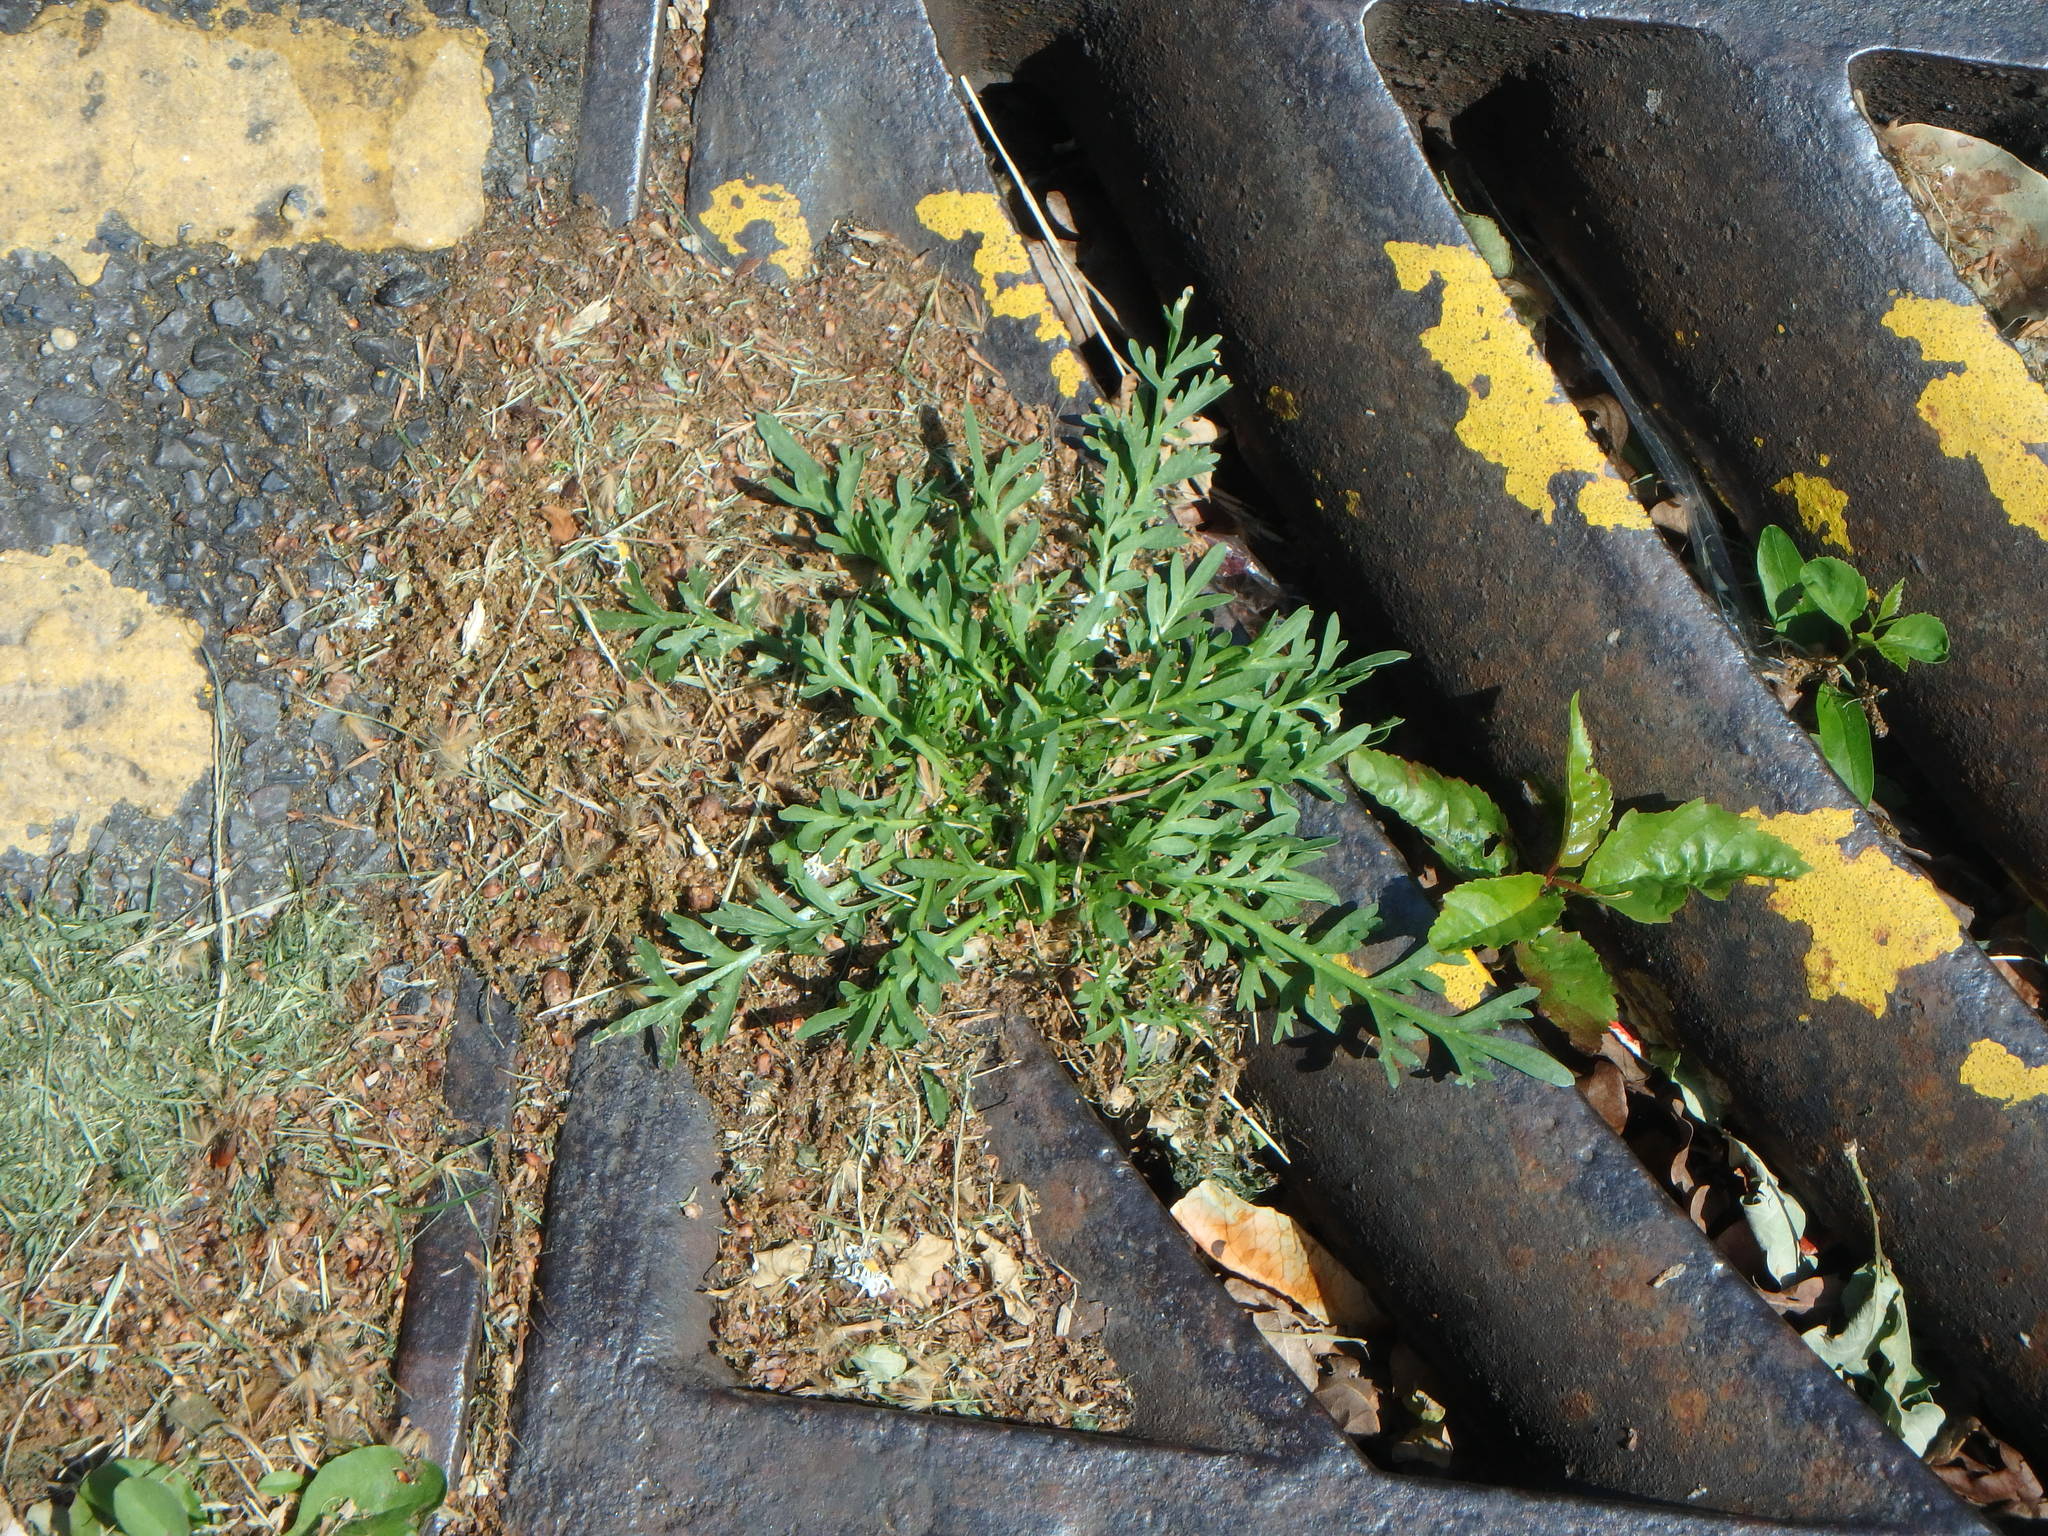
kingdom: Plantae
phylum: Tracheophyta
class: Magnoliopsida
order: Brassicales
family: Brassicaceae
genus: Lepidium
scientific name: Lepidium coronopus
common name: Greater swinecress
